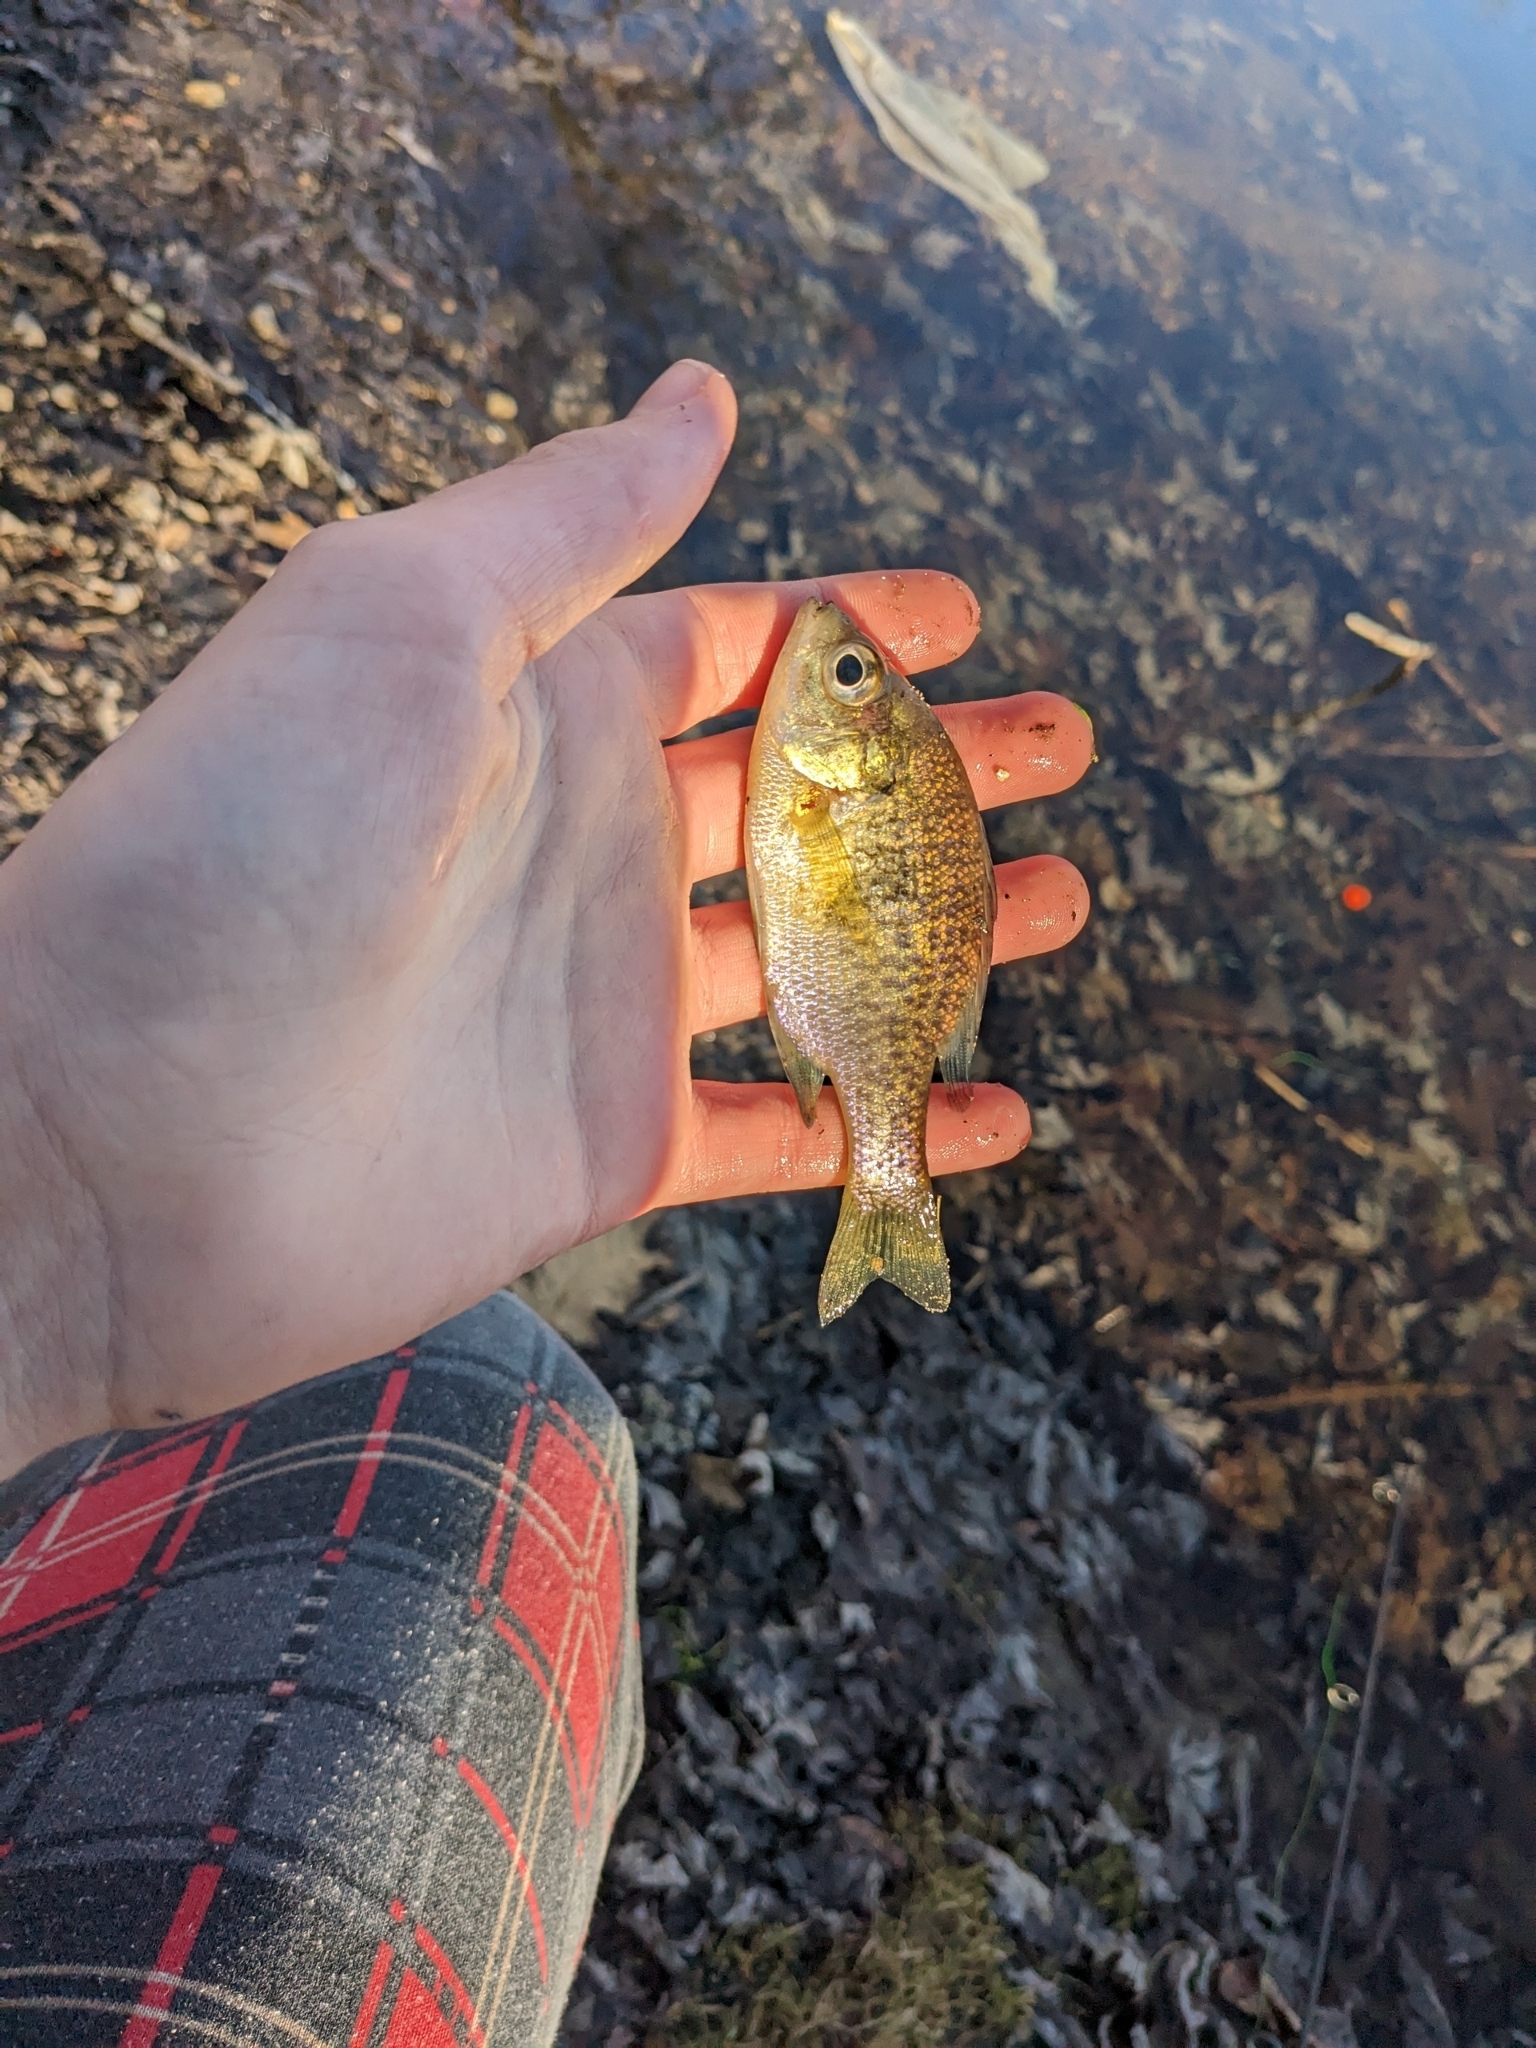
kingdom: Animalia
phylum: Chordata
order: Perciformes
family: Centrarchidae
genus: Lepomis
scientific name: Lepomis macrochirus
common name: Bluegill
